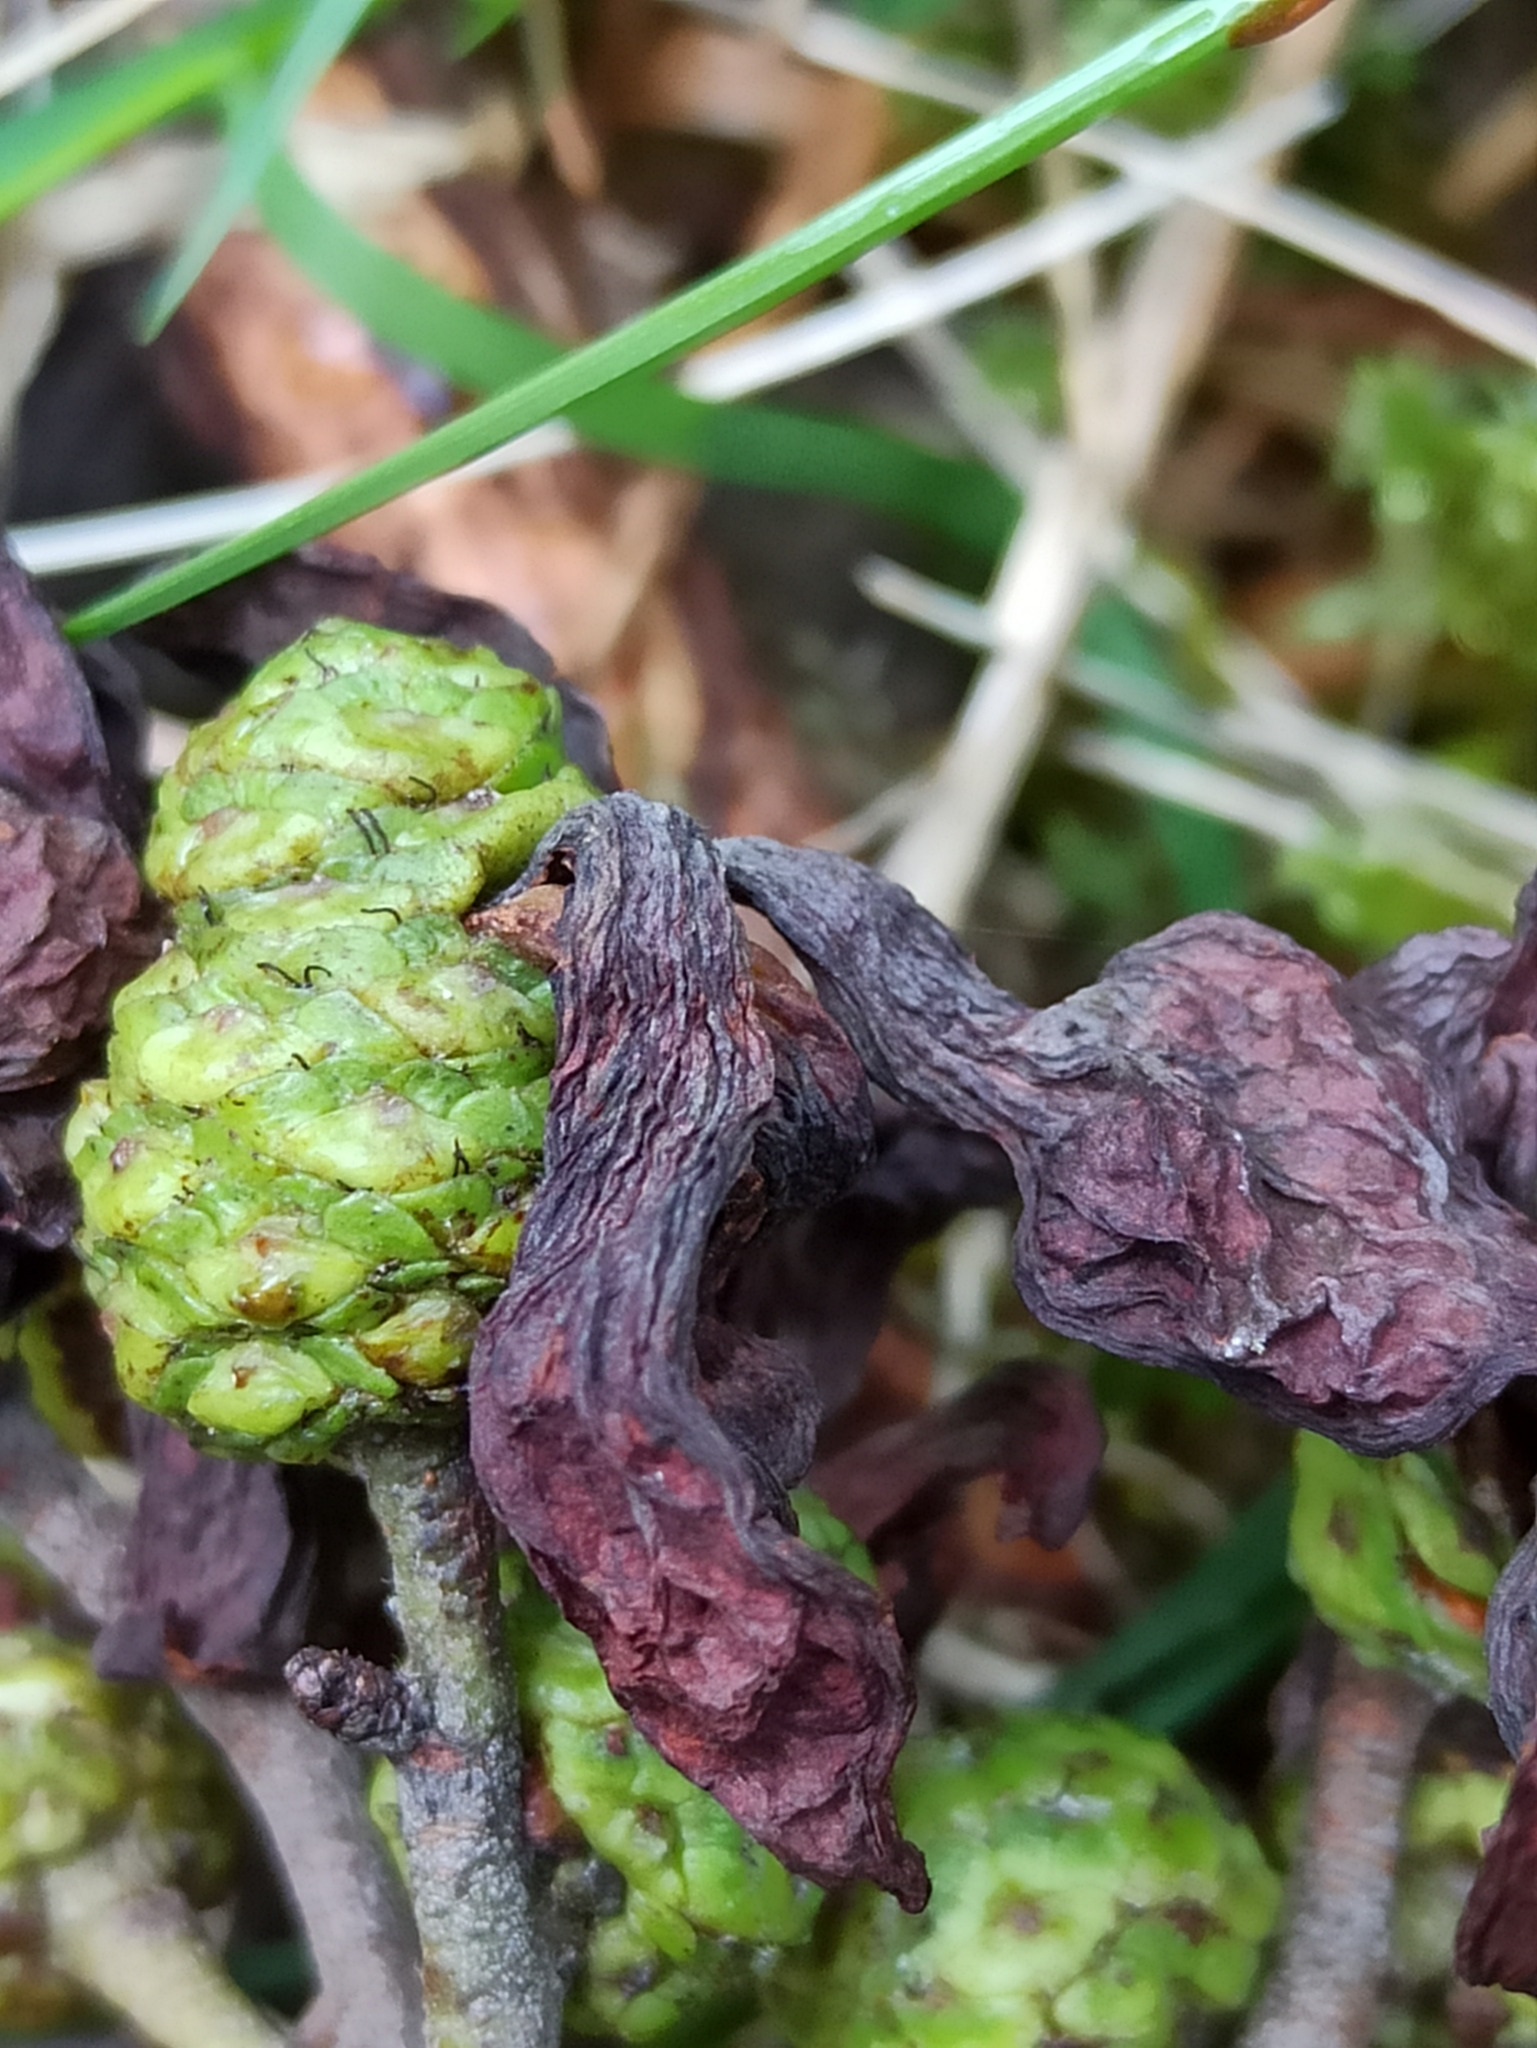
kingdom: Fungi
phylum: Ascomycota
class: Taphrinomycetes
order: Taphrinales
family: Taphrinaceae
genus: Taphrina
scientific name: Taphrina alni
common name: Alder tongue
